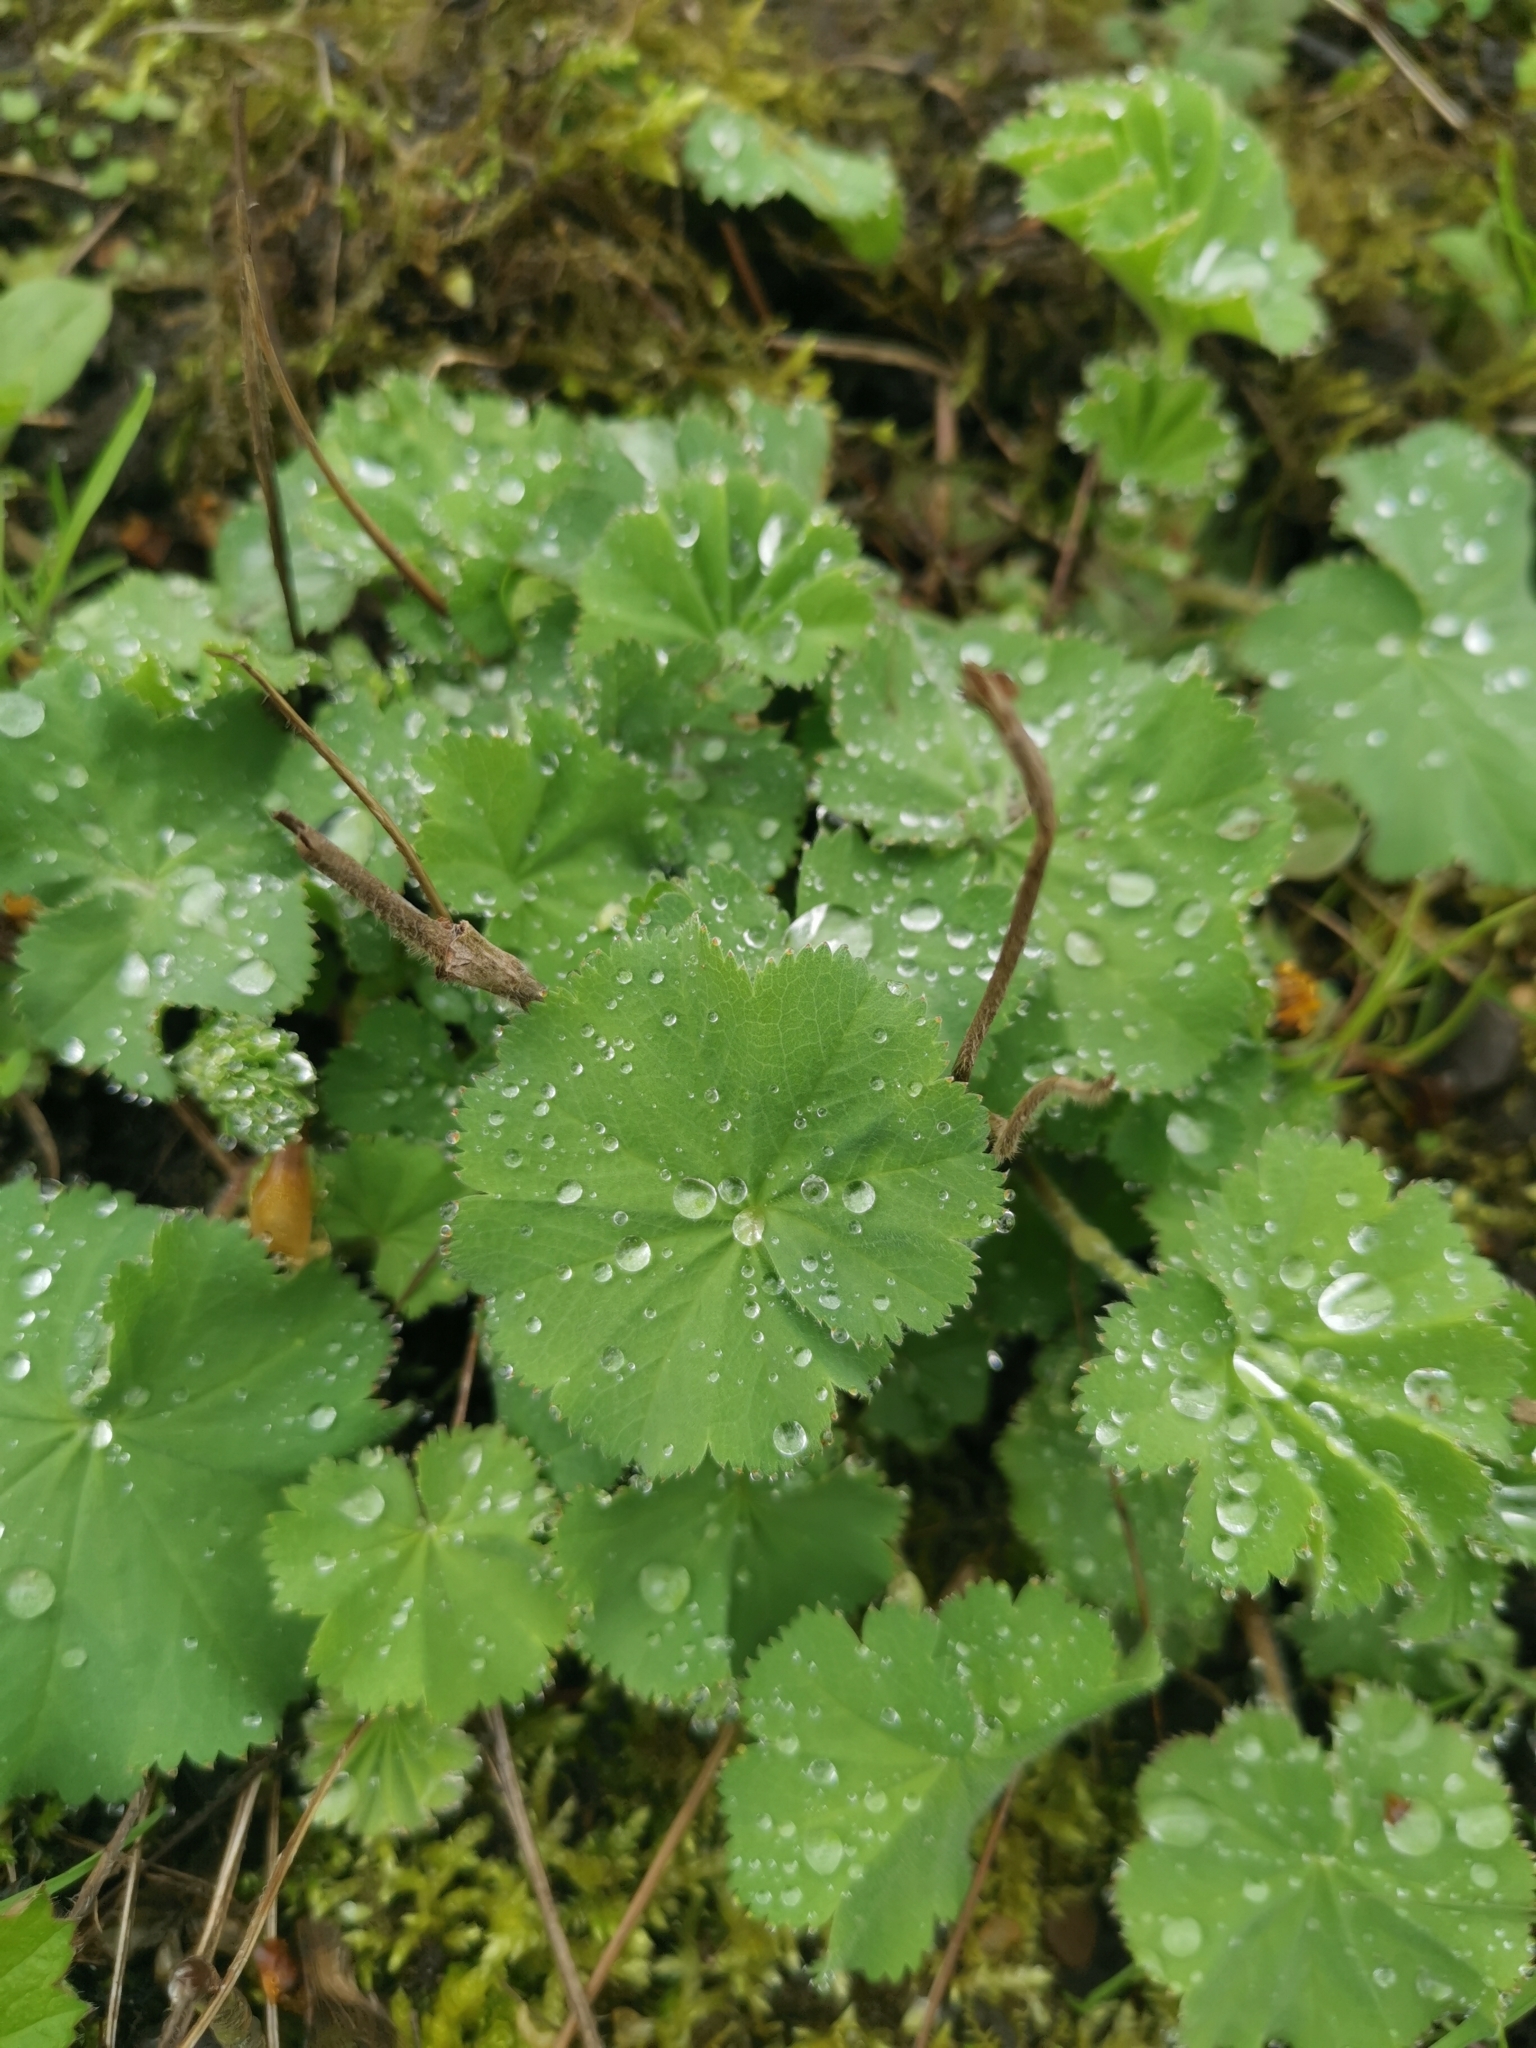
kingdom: Plantae
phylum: Tracheophyta
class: Magnoliopsida
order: Rosales
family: Rosaceae
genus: Alchemilla
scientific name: Alchemilla vulgaris
